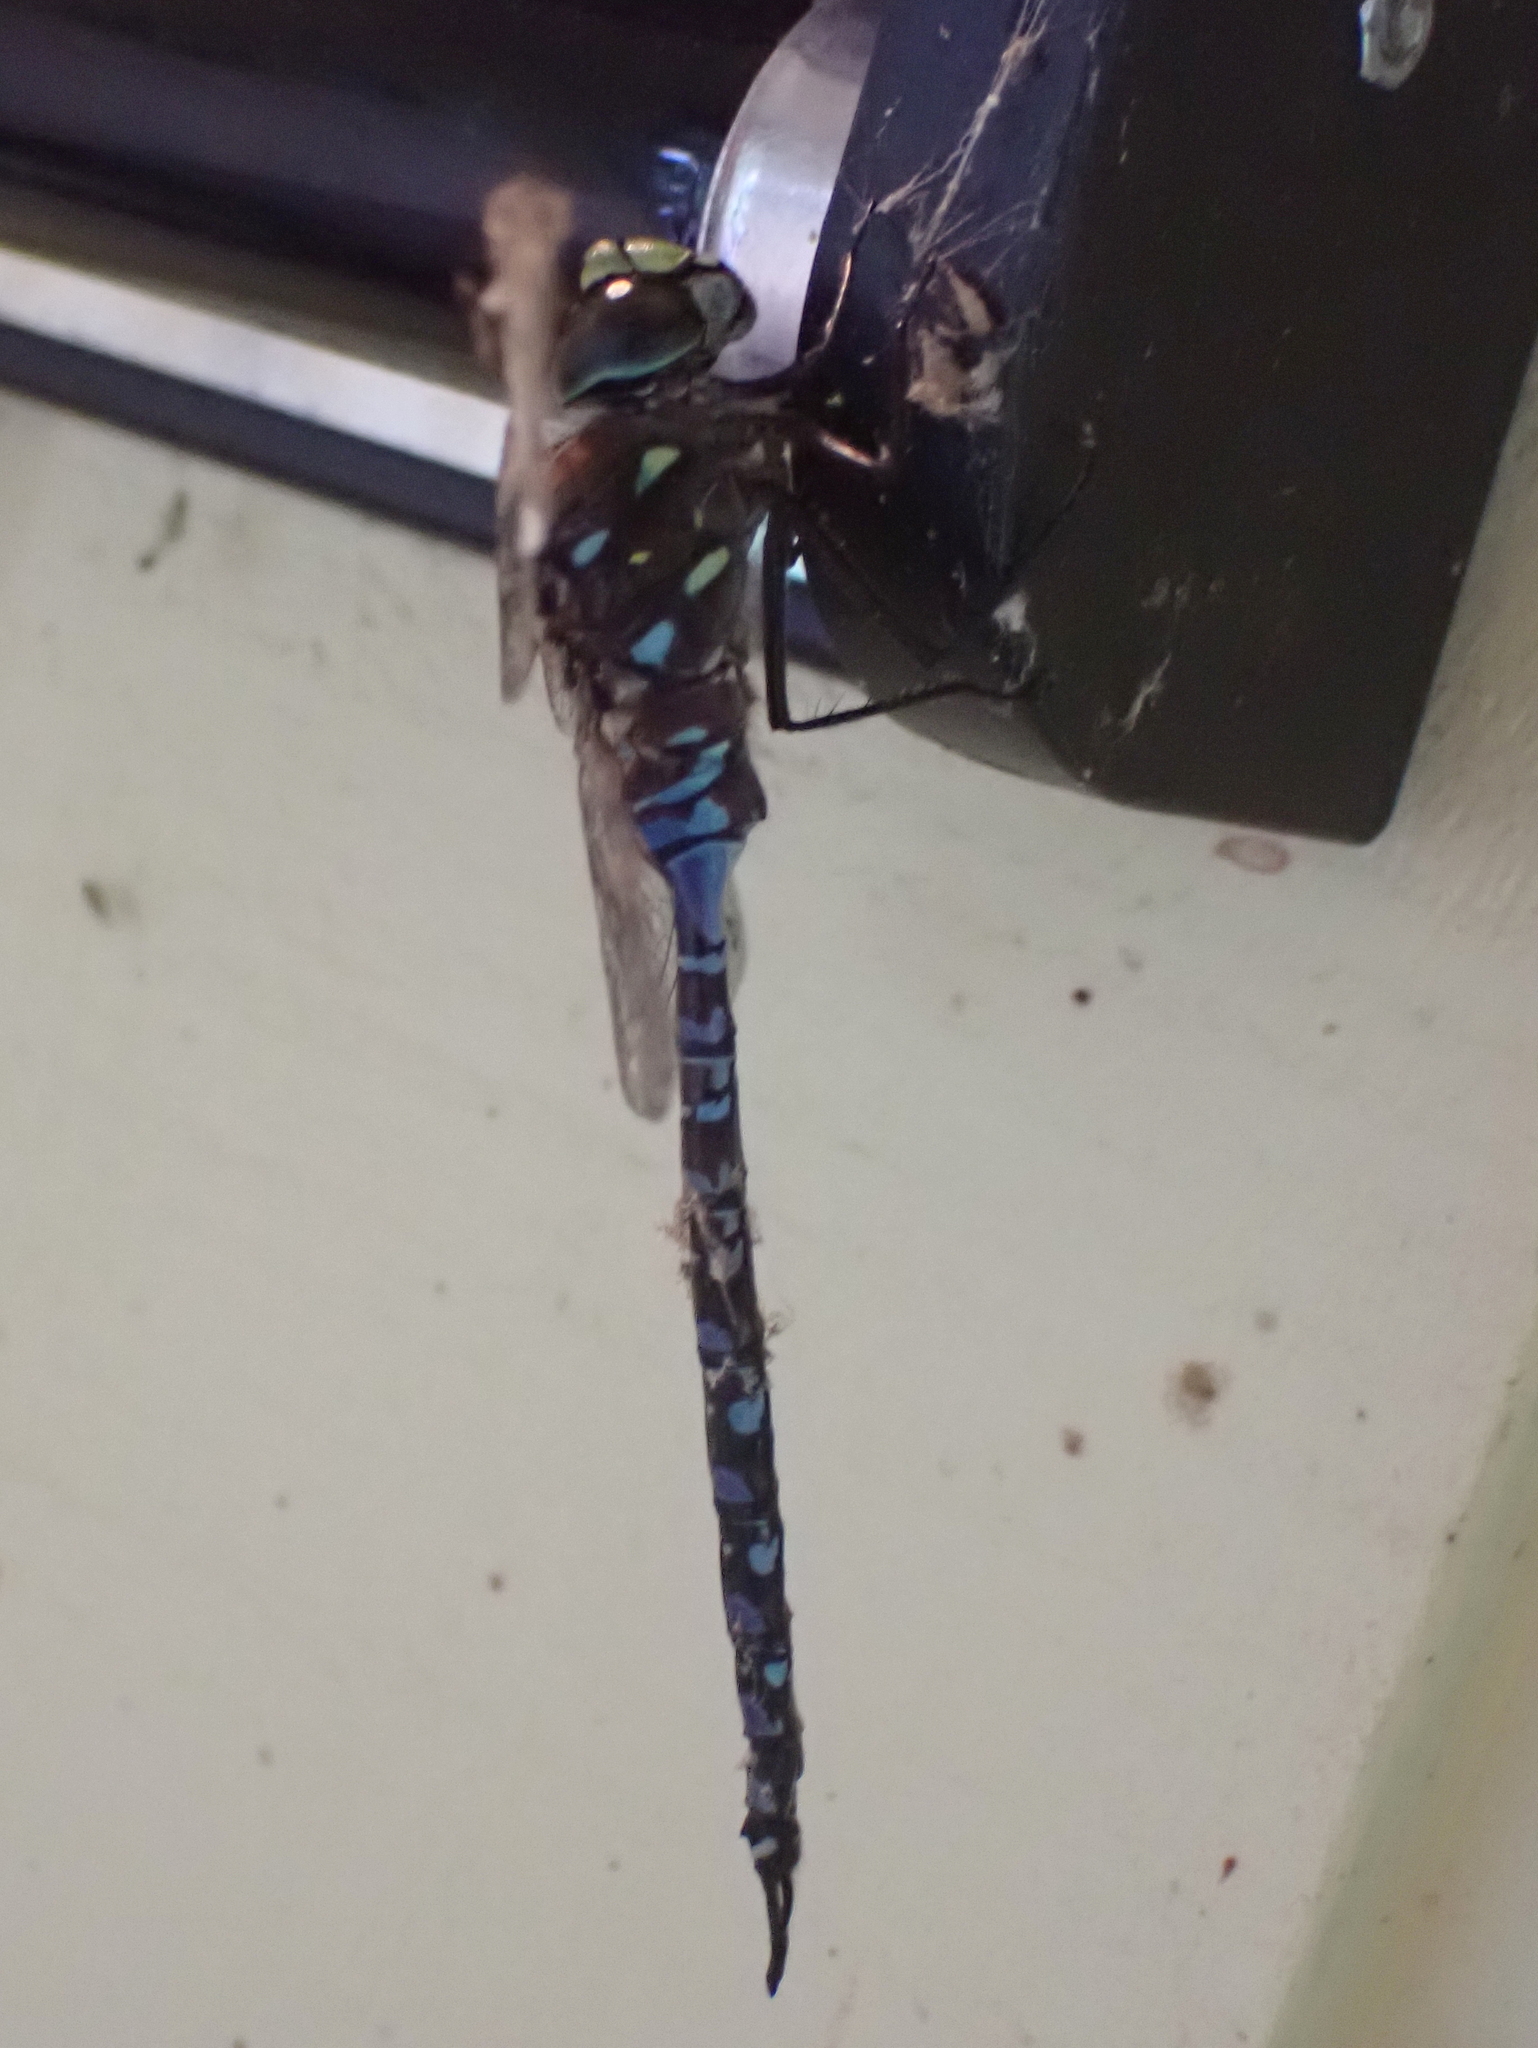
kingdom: Animalia
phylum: Arthropoda
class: Insecta
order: Odonata
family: Aeshnidae
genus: Aeshna
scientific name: Aeshna interrupta
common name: Variable darner
